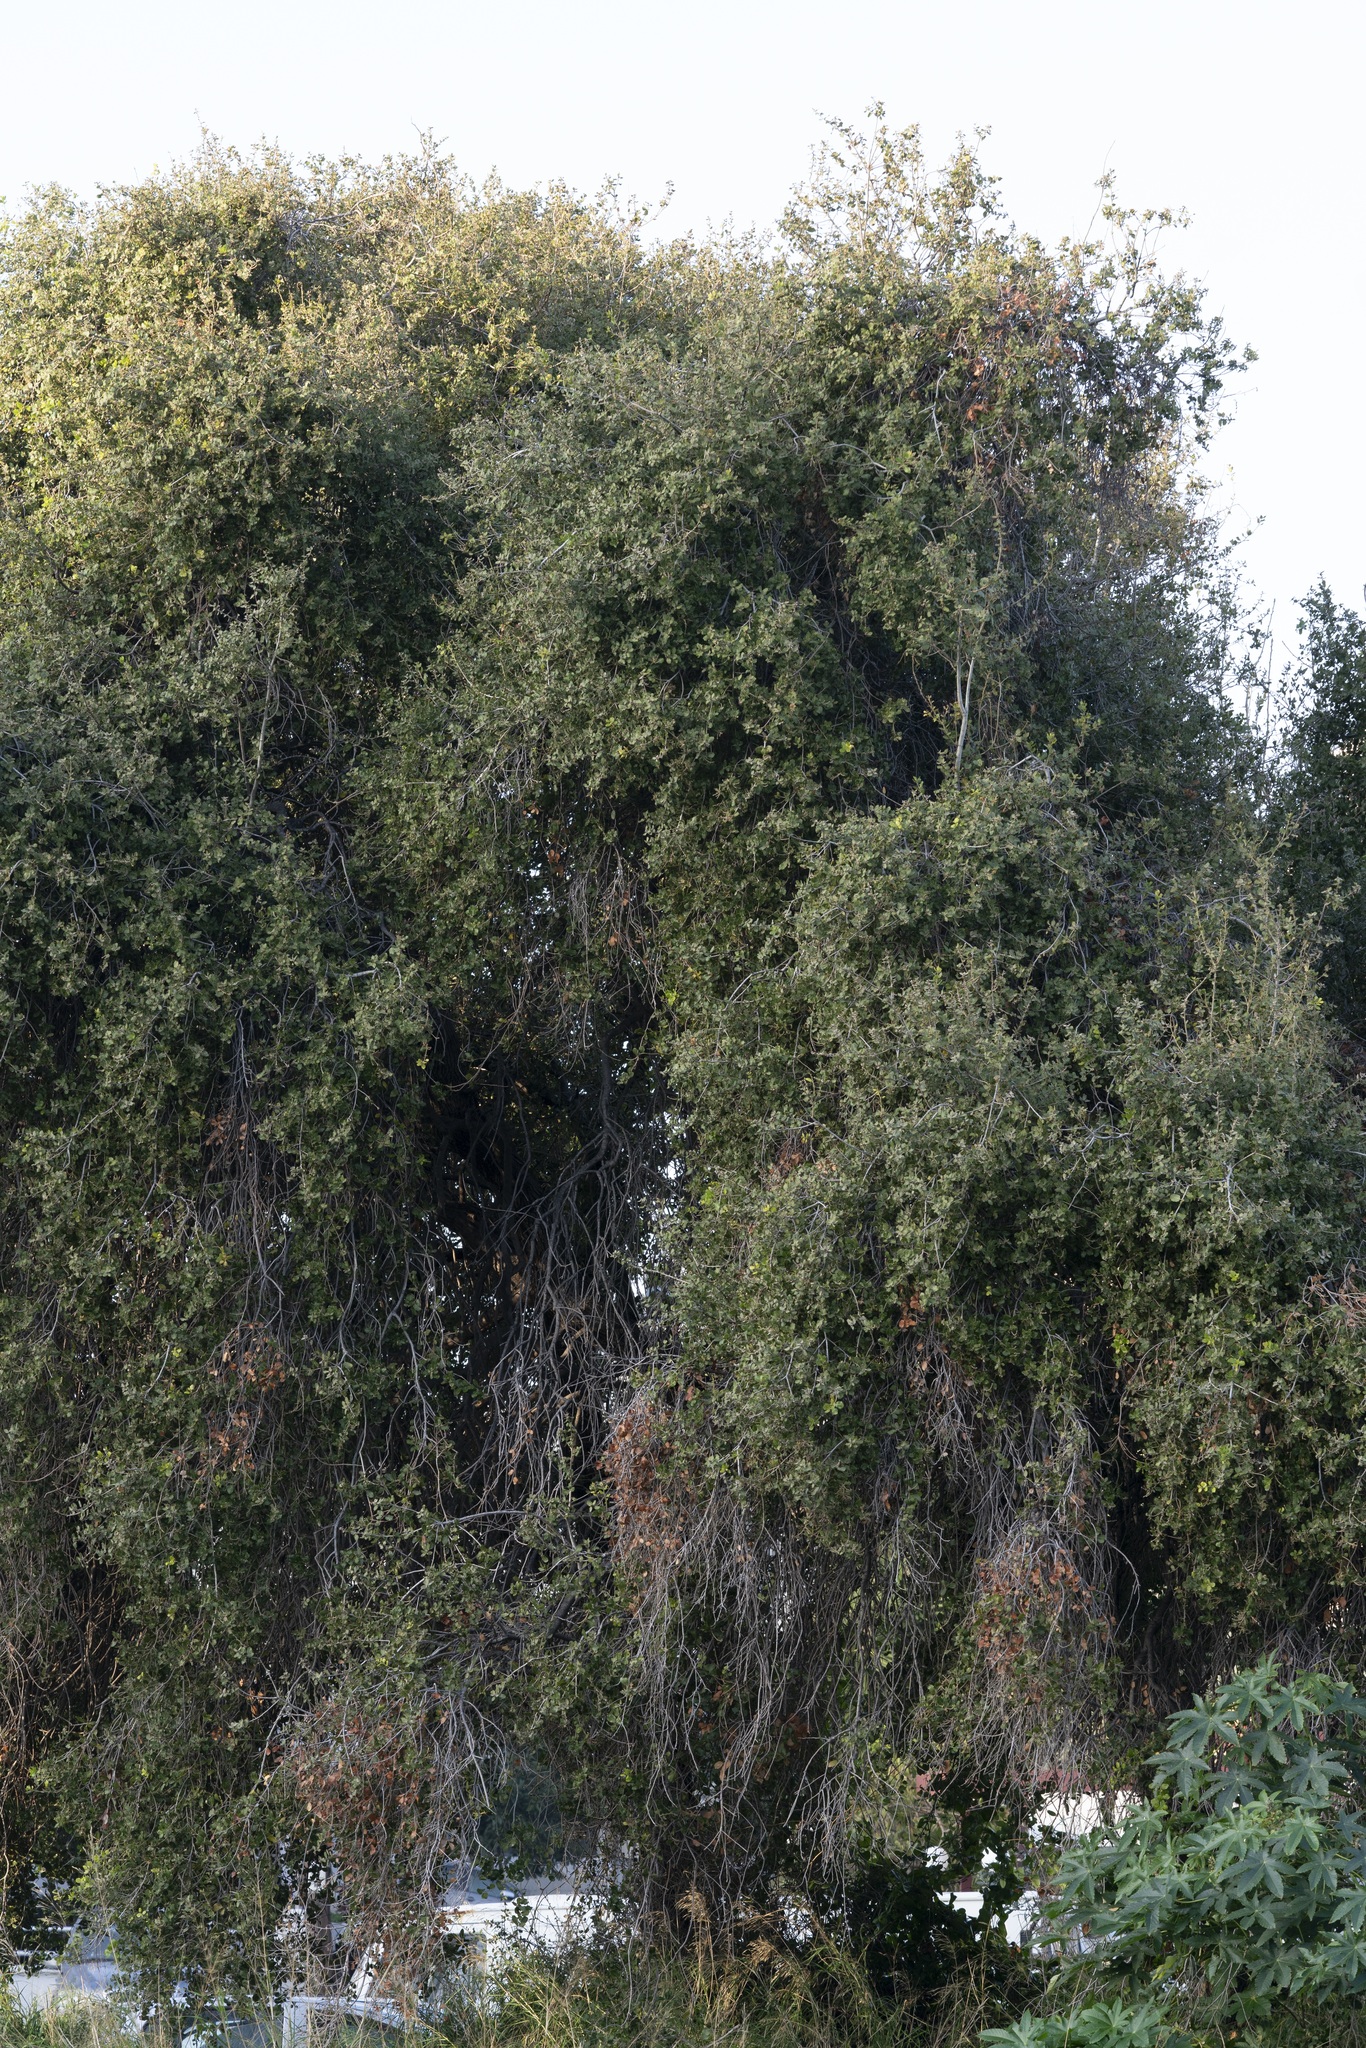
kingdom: Plantae
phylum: Tracheophyta
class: Magnoliopsida
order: Fagales
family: Fagaceae
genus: Quercus
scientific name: Quercus coccifera
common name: Kermes oak
